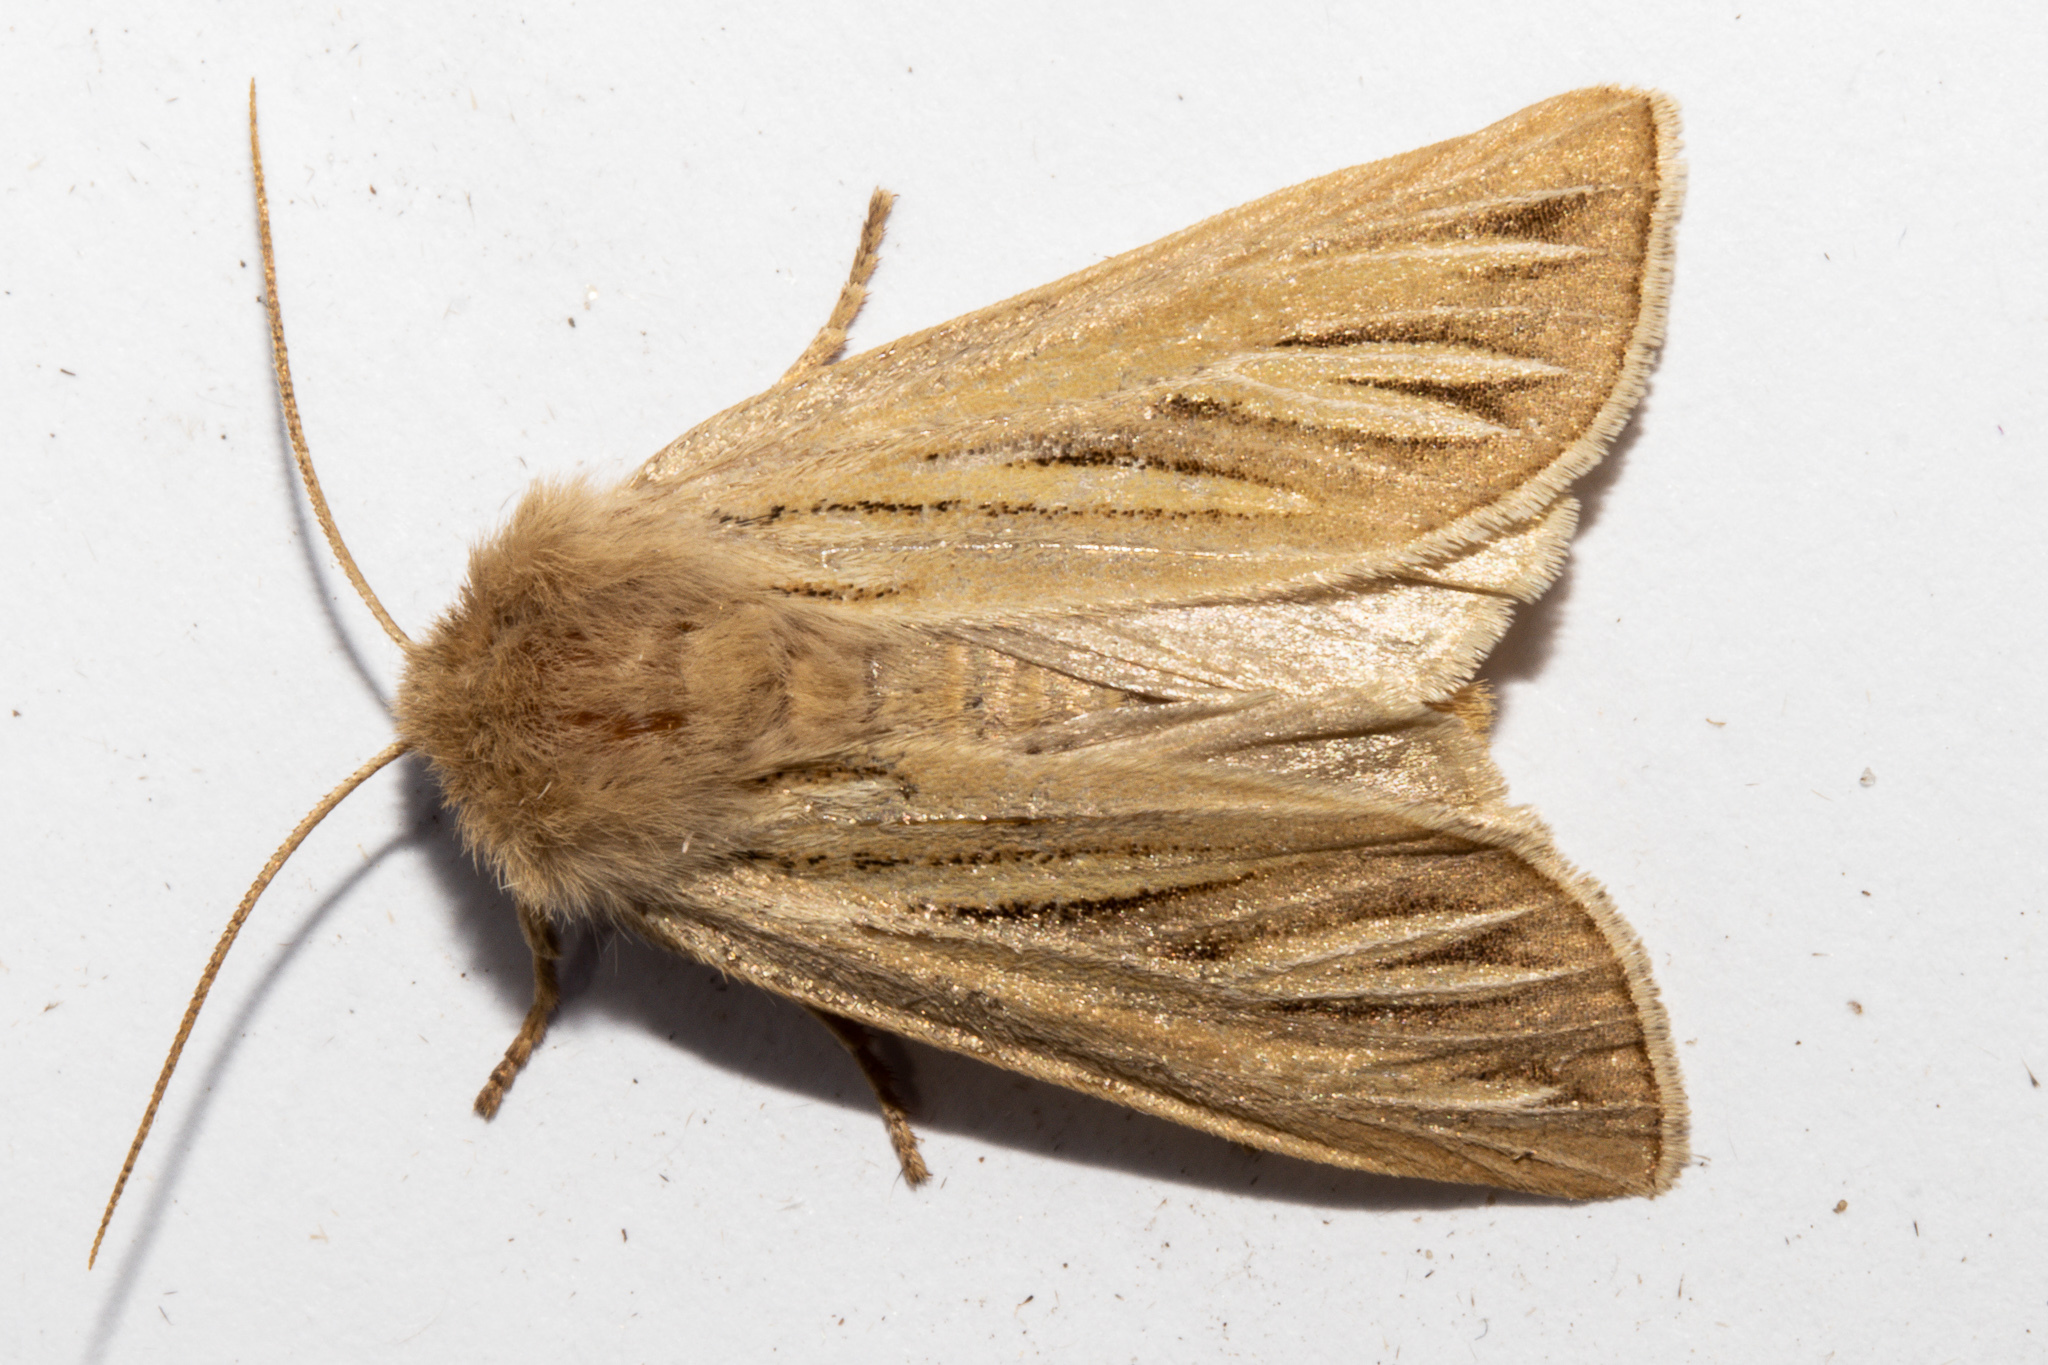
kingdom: Animalia
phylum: Arthropoda
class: Insecta
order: Lepidoptera
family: Noctuidae
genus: Ichneutica
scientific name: Ichneutica caraunias
